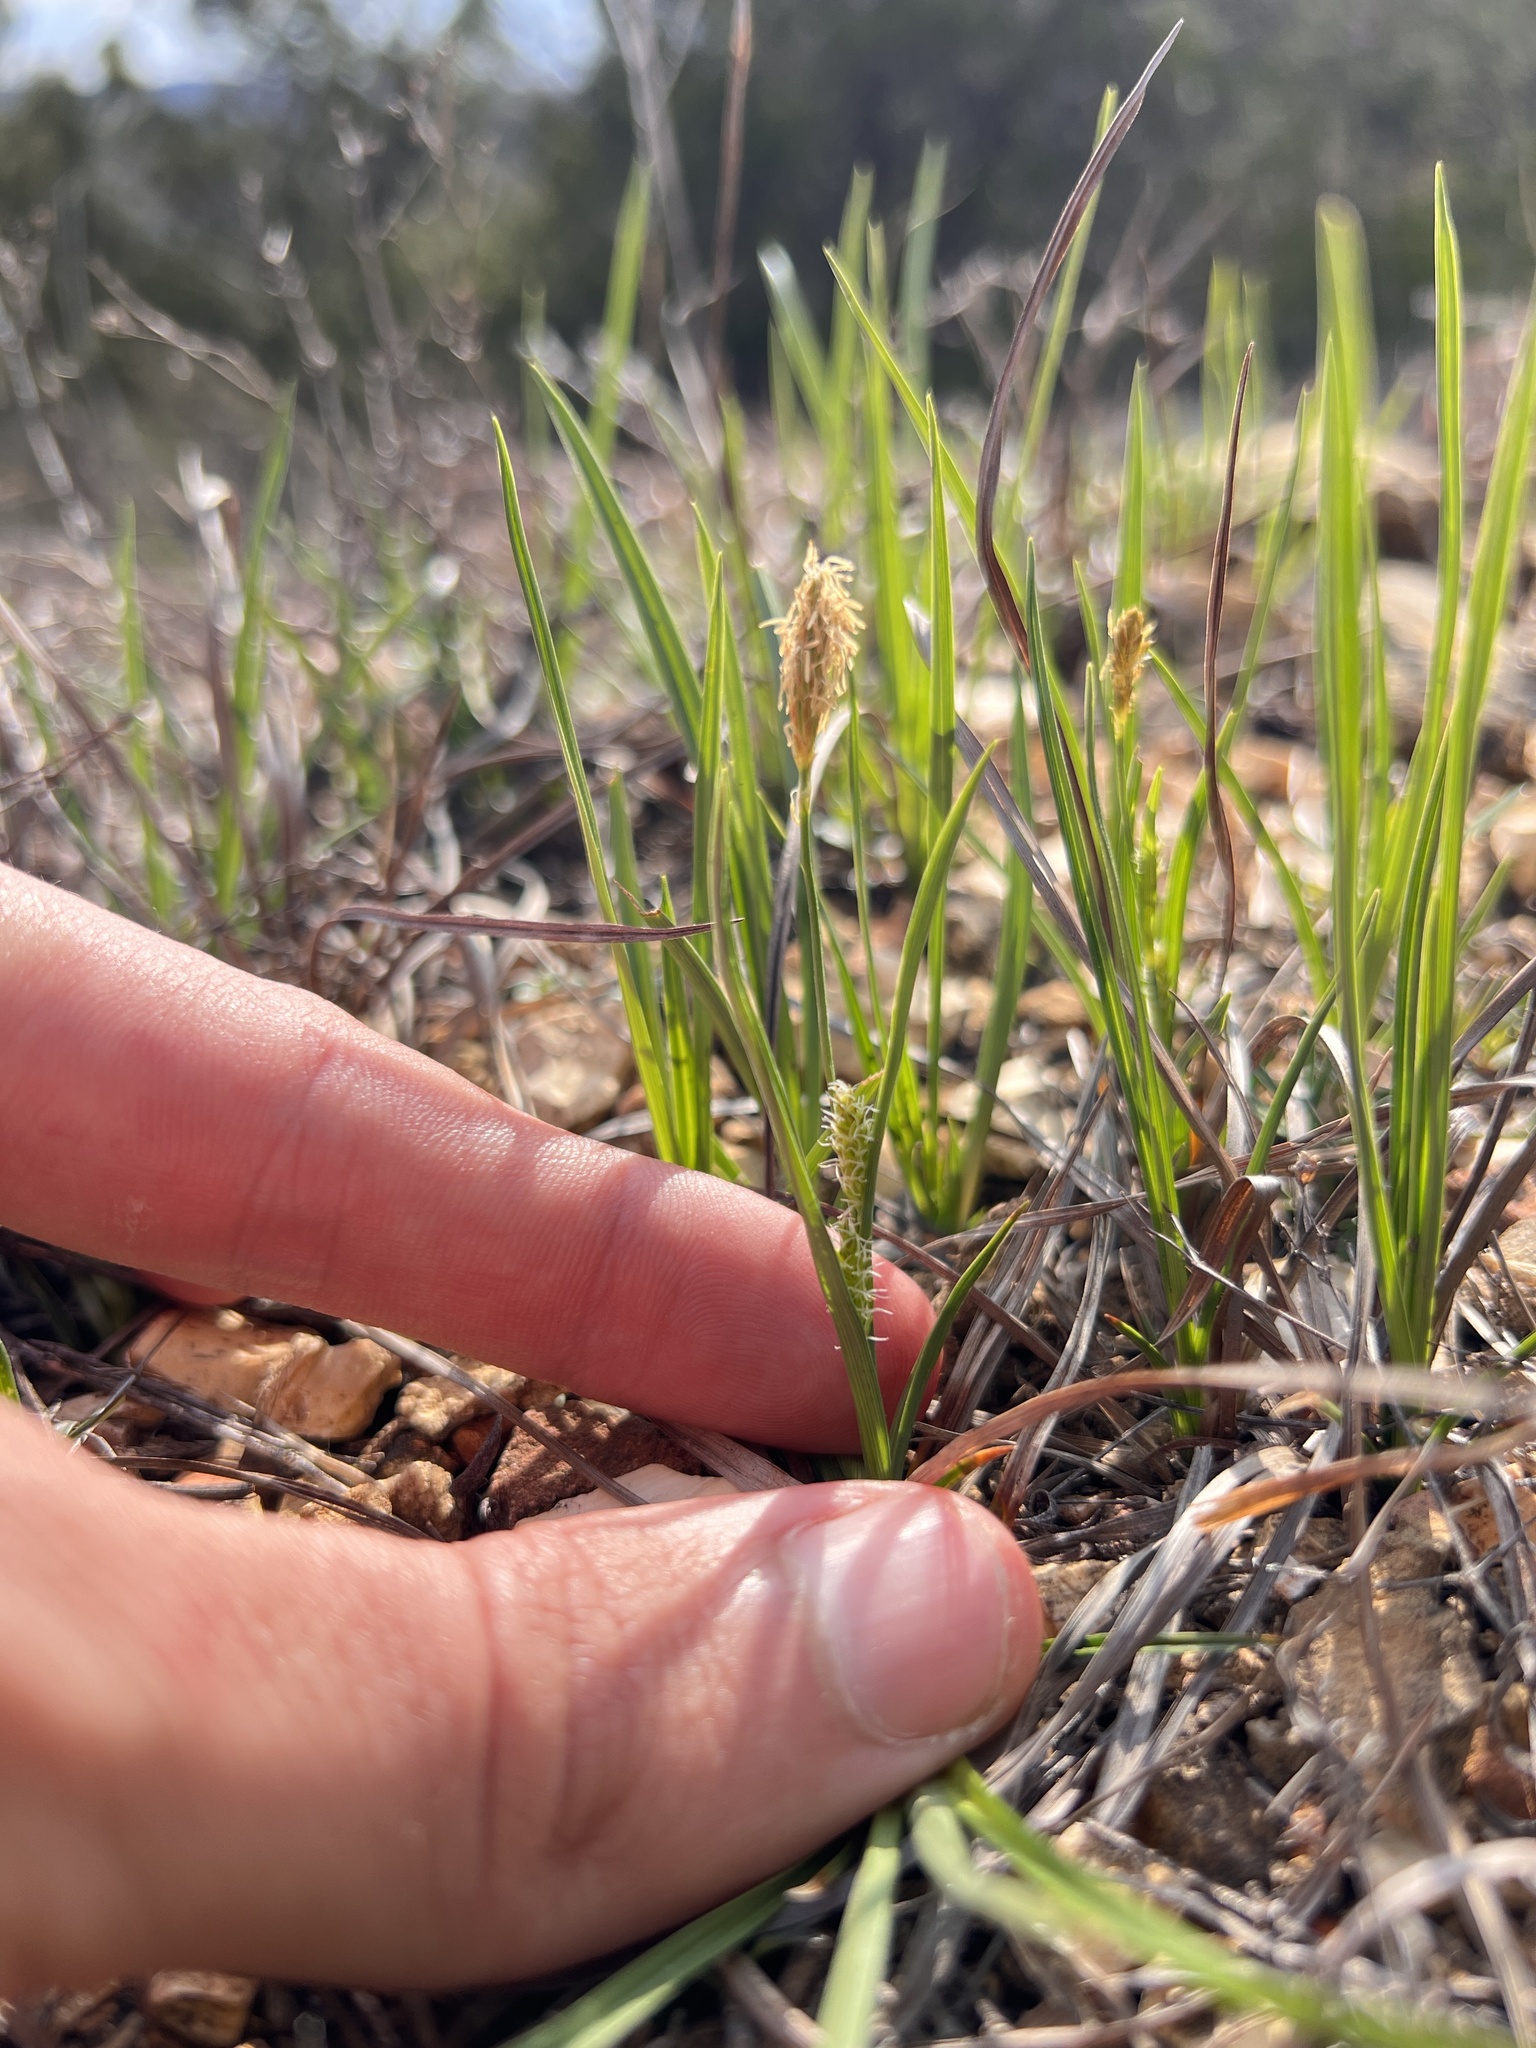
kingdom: Plantae
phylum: Tracheophyta
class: Liliopsida
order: Poales
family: Cyperaceae
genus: Carex
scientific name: Carex crawei
